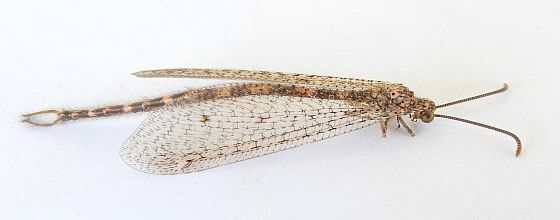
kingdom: Animalia
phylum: Arthropoda
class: Insecta
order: Neuroptera
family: Myrmeleontidae
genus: Brachynemurus
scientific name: Brachynemurus sackeni
